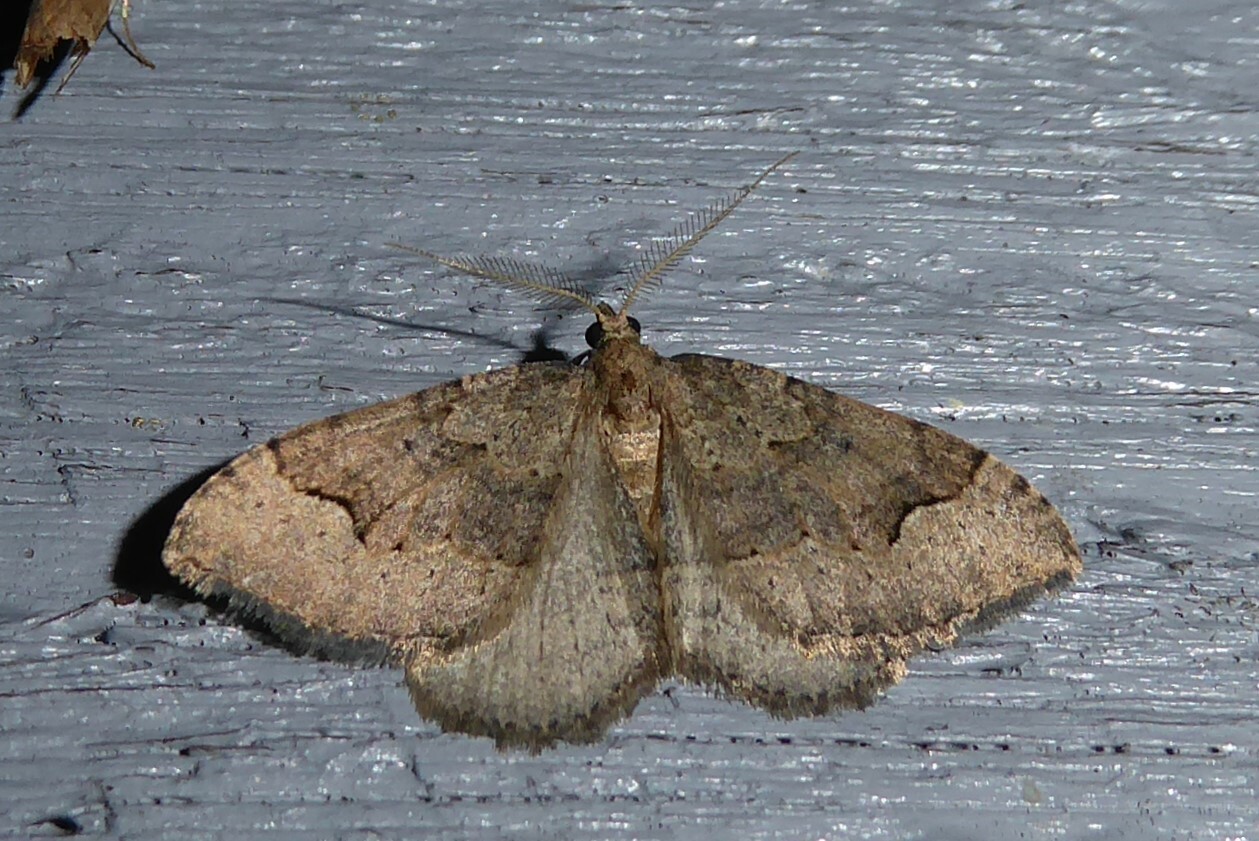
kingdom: Animalia
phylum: Arthropoda
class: Insecta
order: Lepidoptera
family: Geometridae
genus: Epyaxa
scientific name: Epyaxa rosearia
